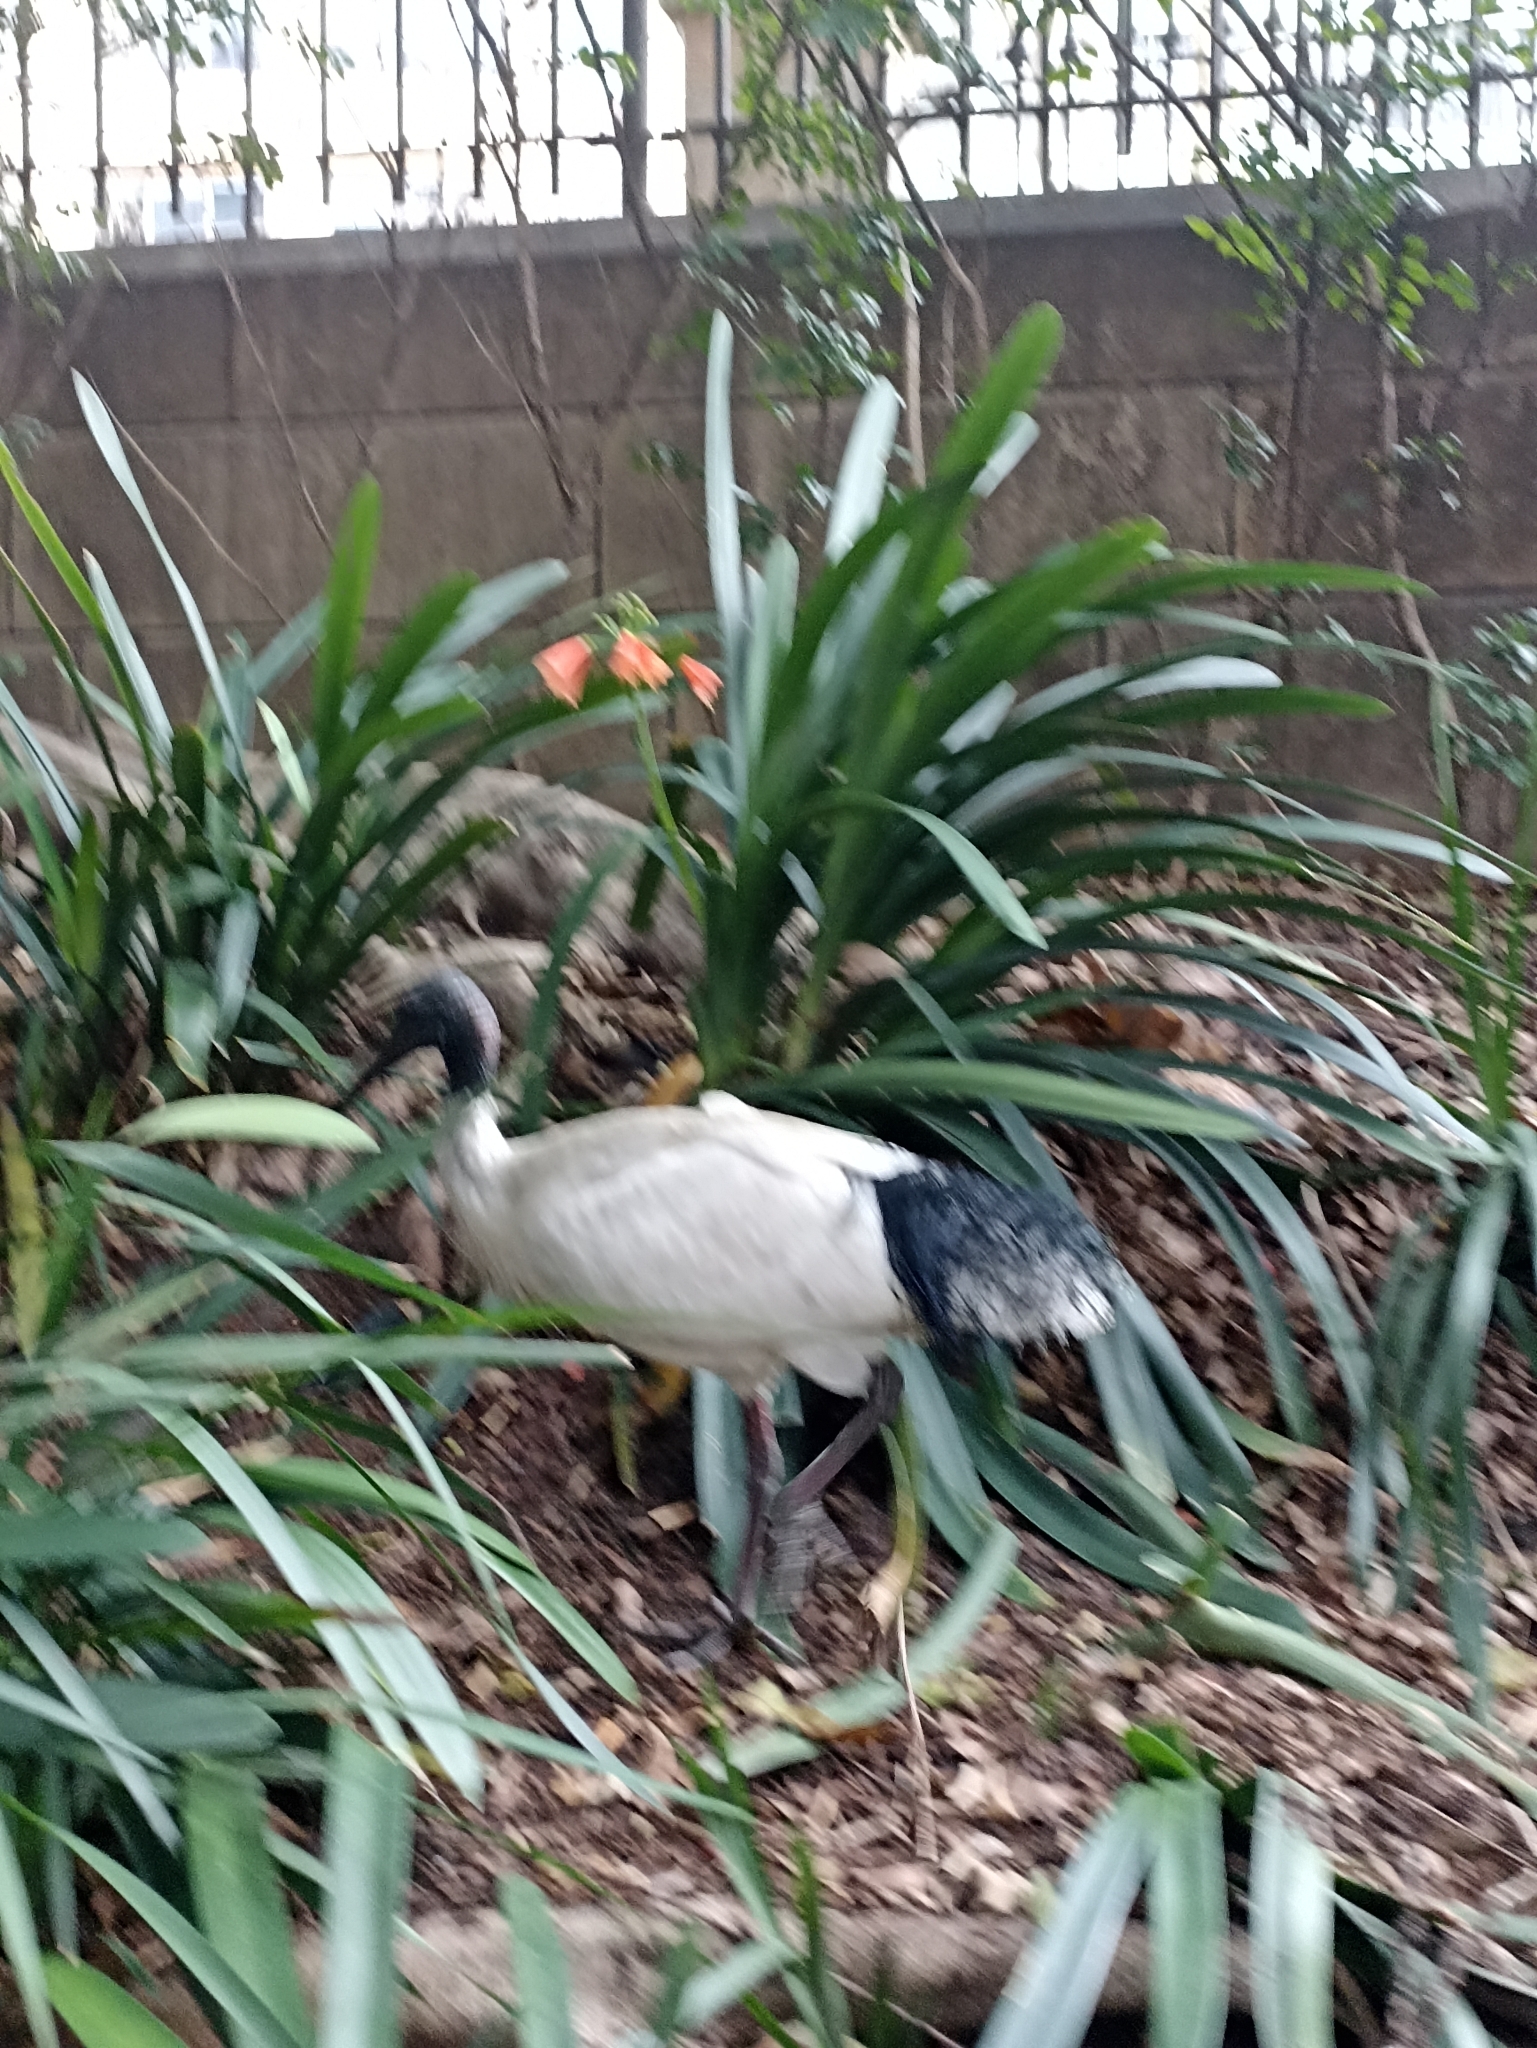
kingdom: Animalia
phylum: Chordata
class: Aves
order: Pelecaniformes
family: Threskiornithidae
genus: Threskiornis
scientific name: Threskiornis molucca
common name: Australian white ibis
